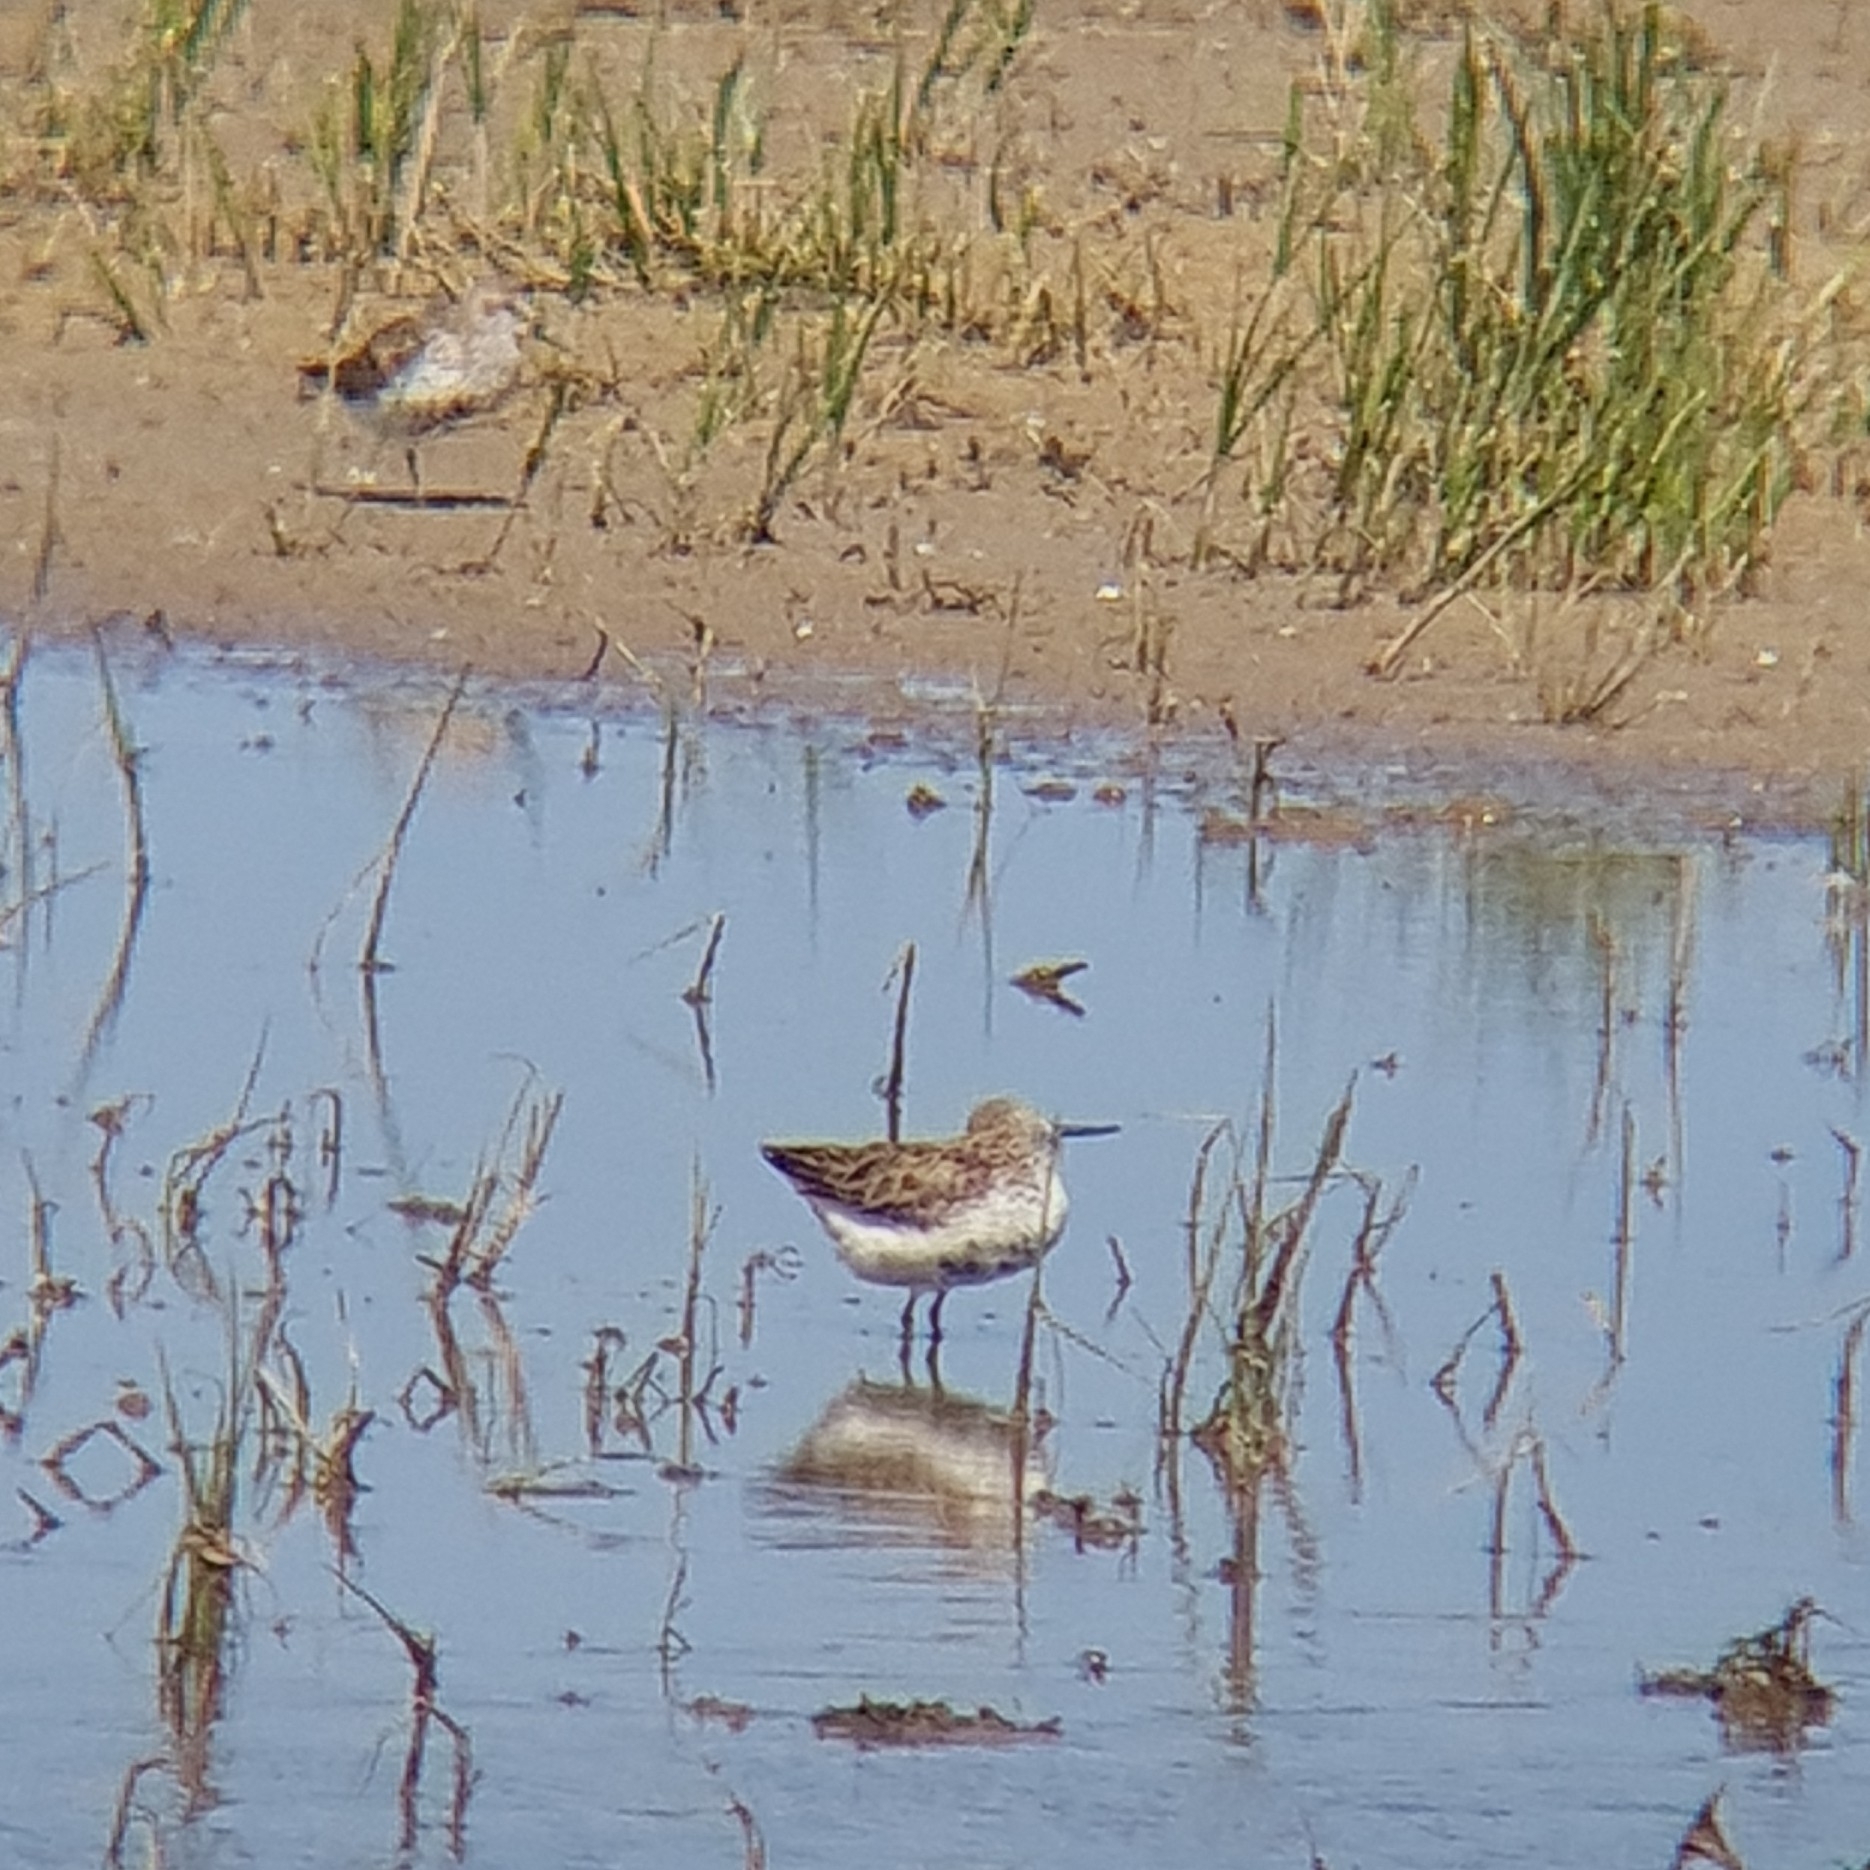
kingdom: Animalia
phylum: Chordata
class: Aves
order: Charadriiformes
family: Scolopacidae
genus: Calidris
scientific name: Calidris alpina
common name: Dunlin
